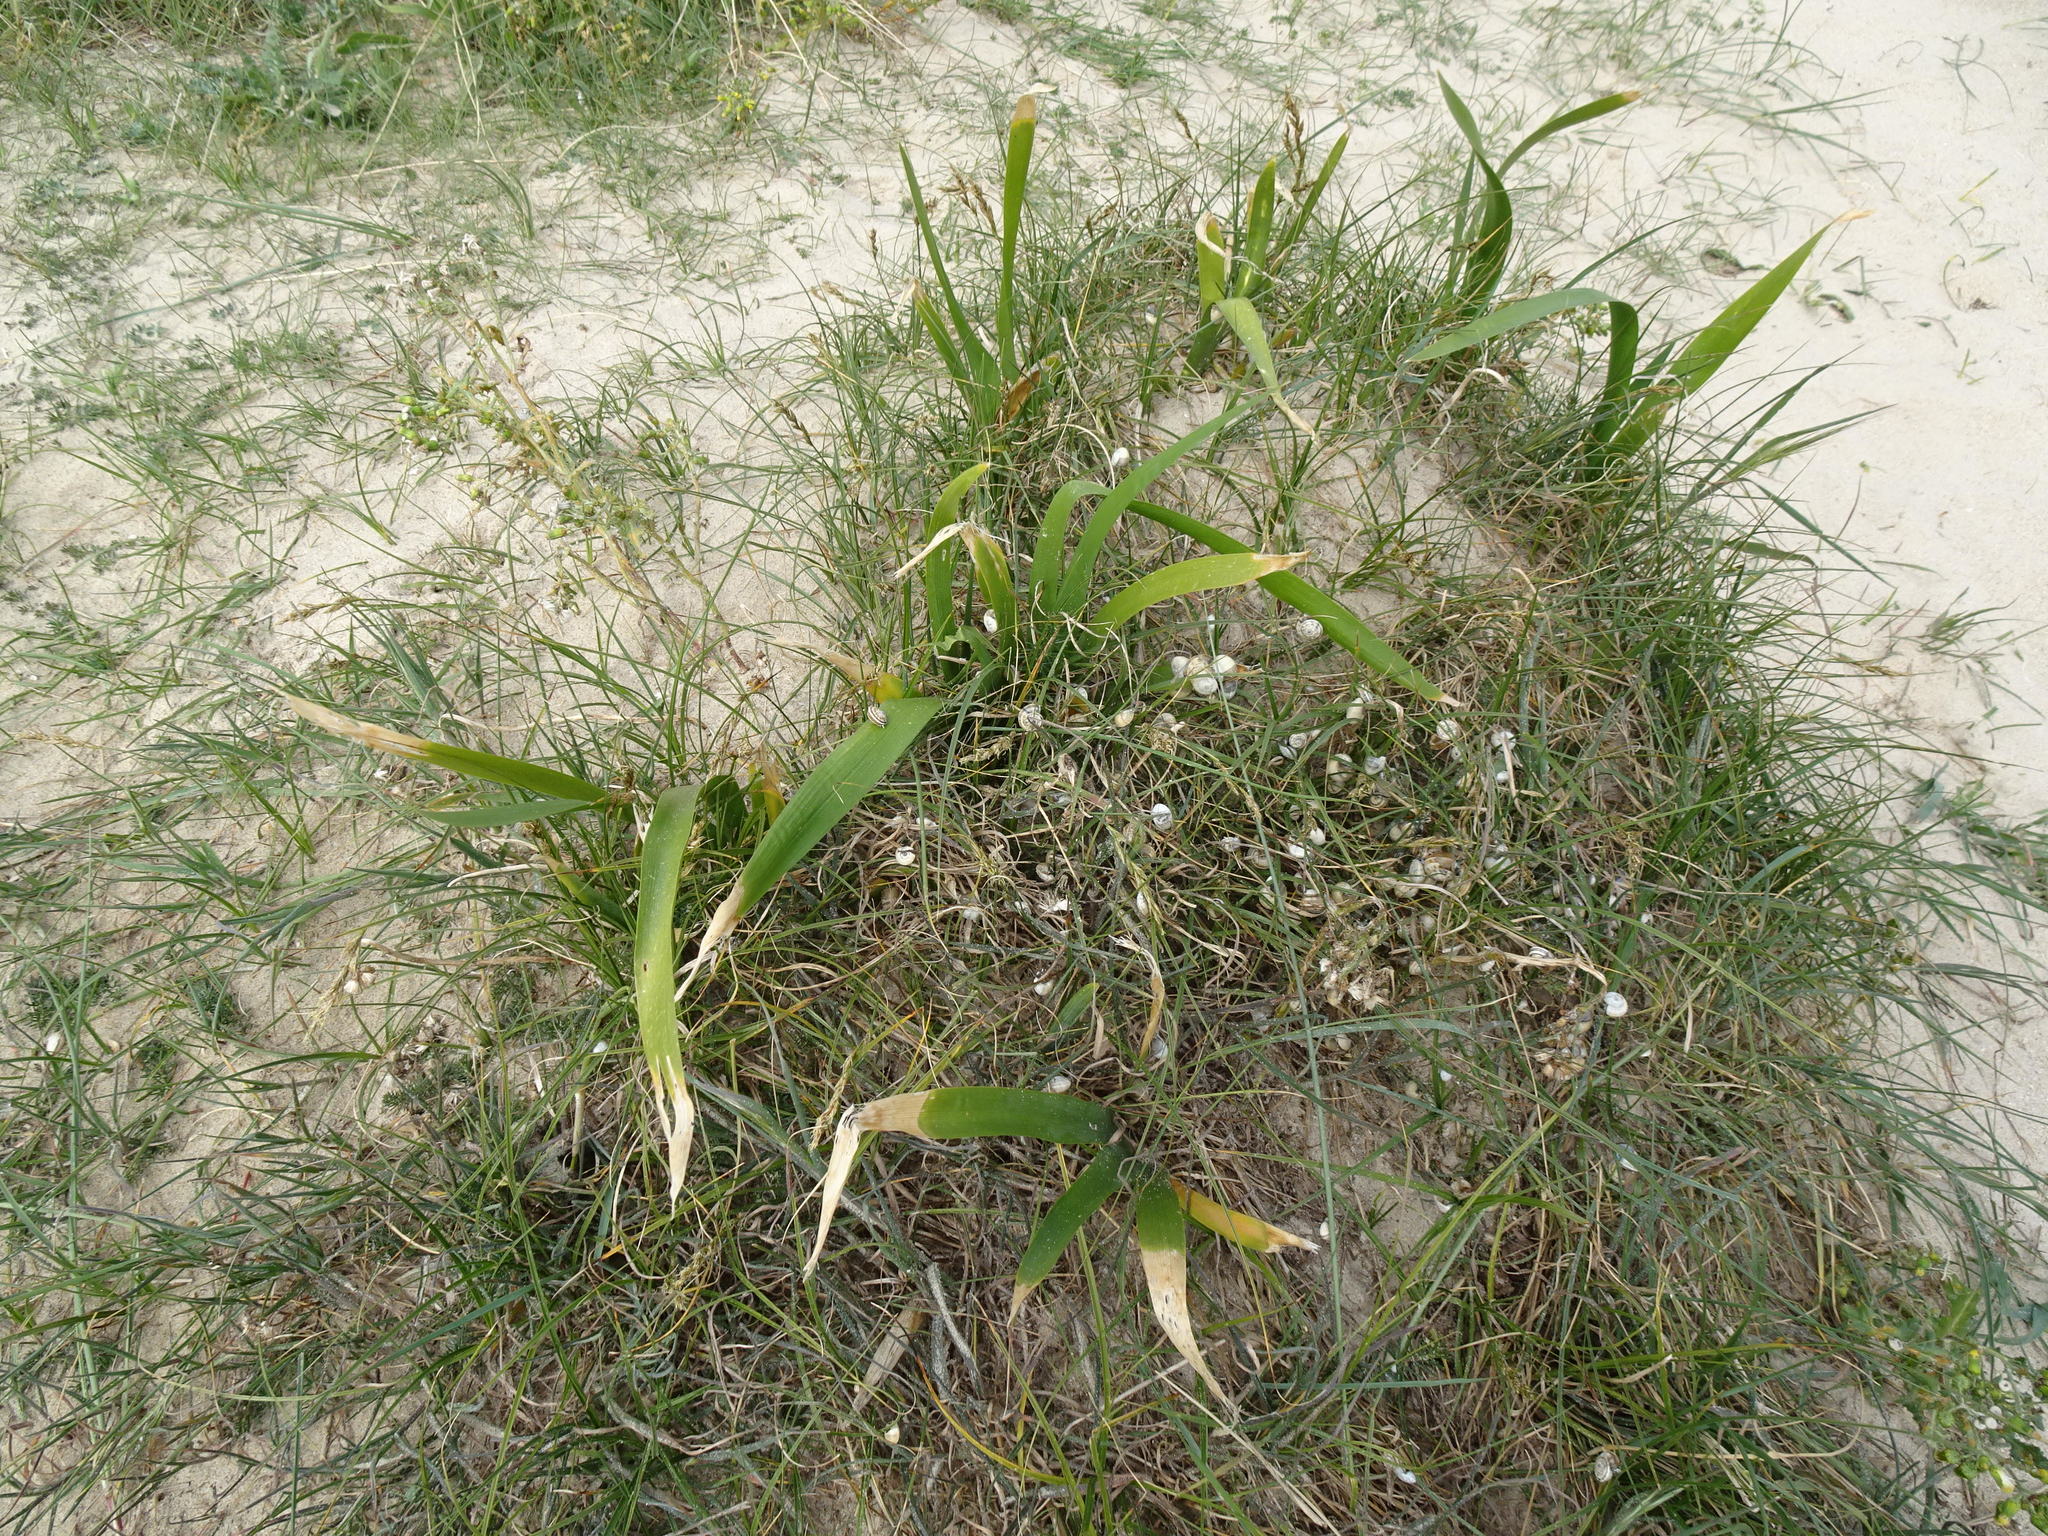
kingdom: Plantae
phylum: Tracheophyta
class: Liliopsida
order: Asparagales
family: Iridaceae
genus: Iris
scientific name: Iris foetidissima
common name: Stinking iris
